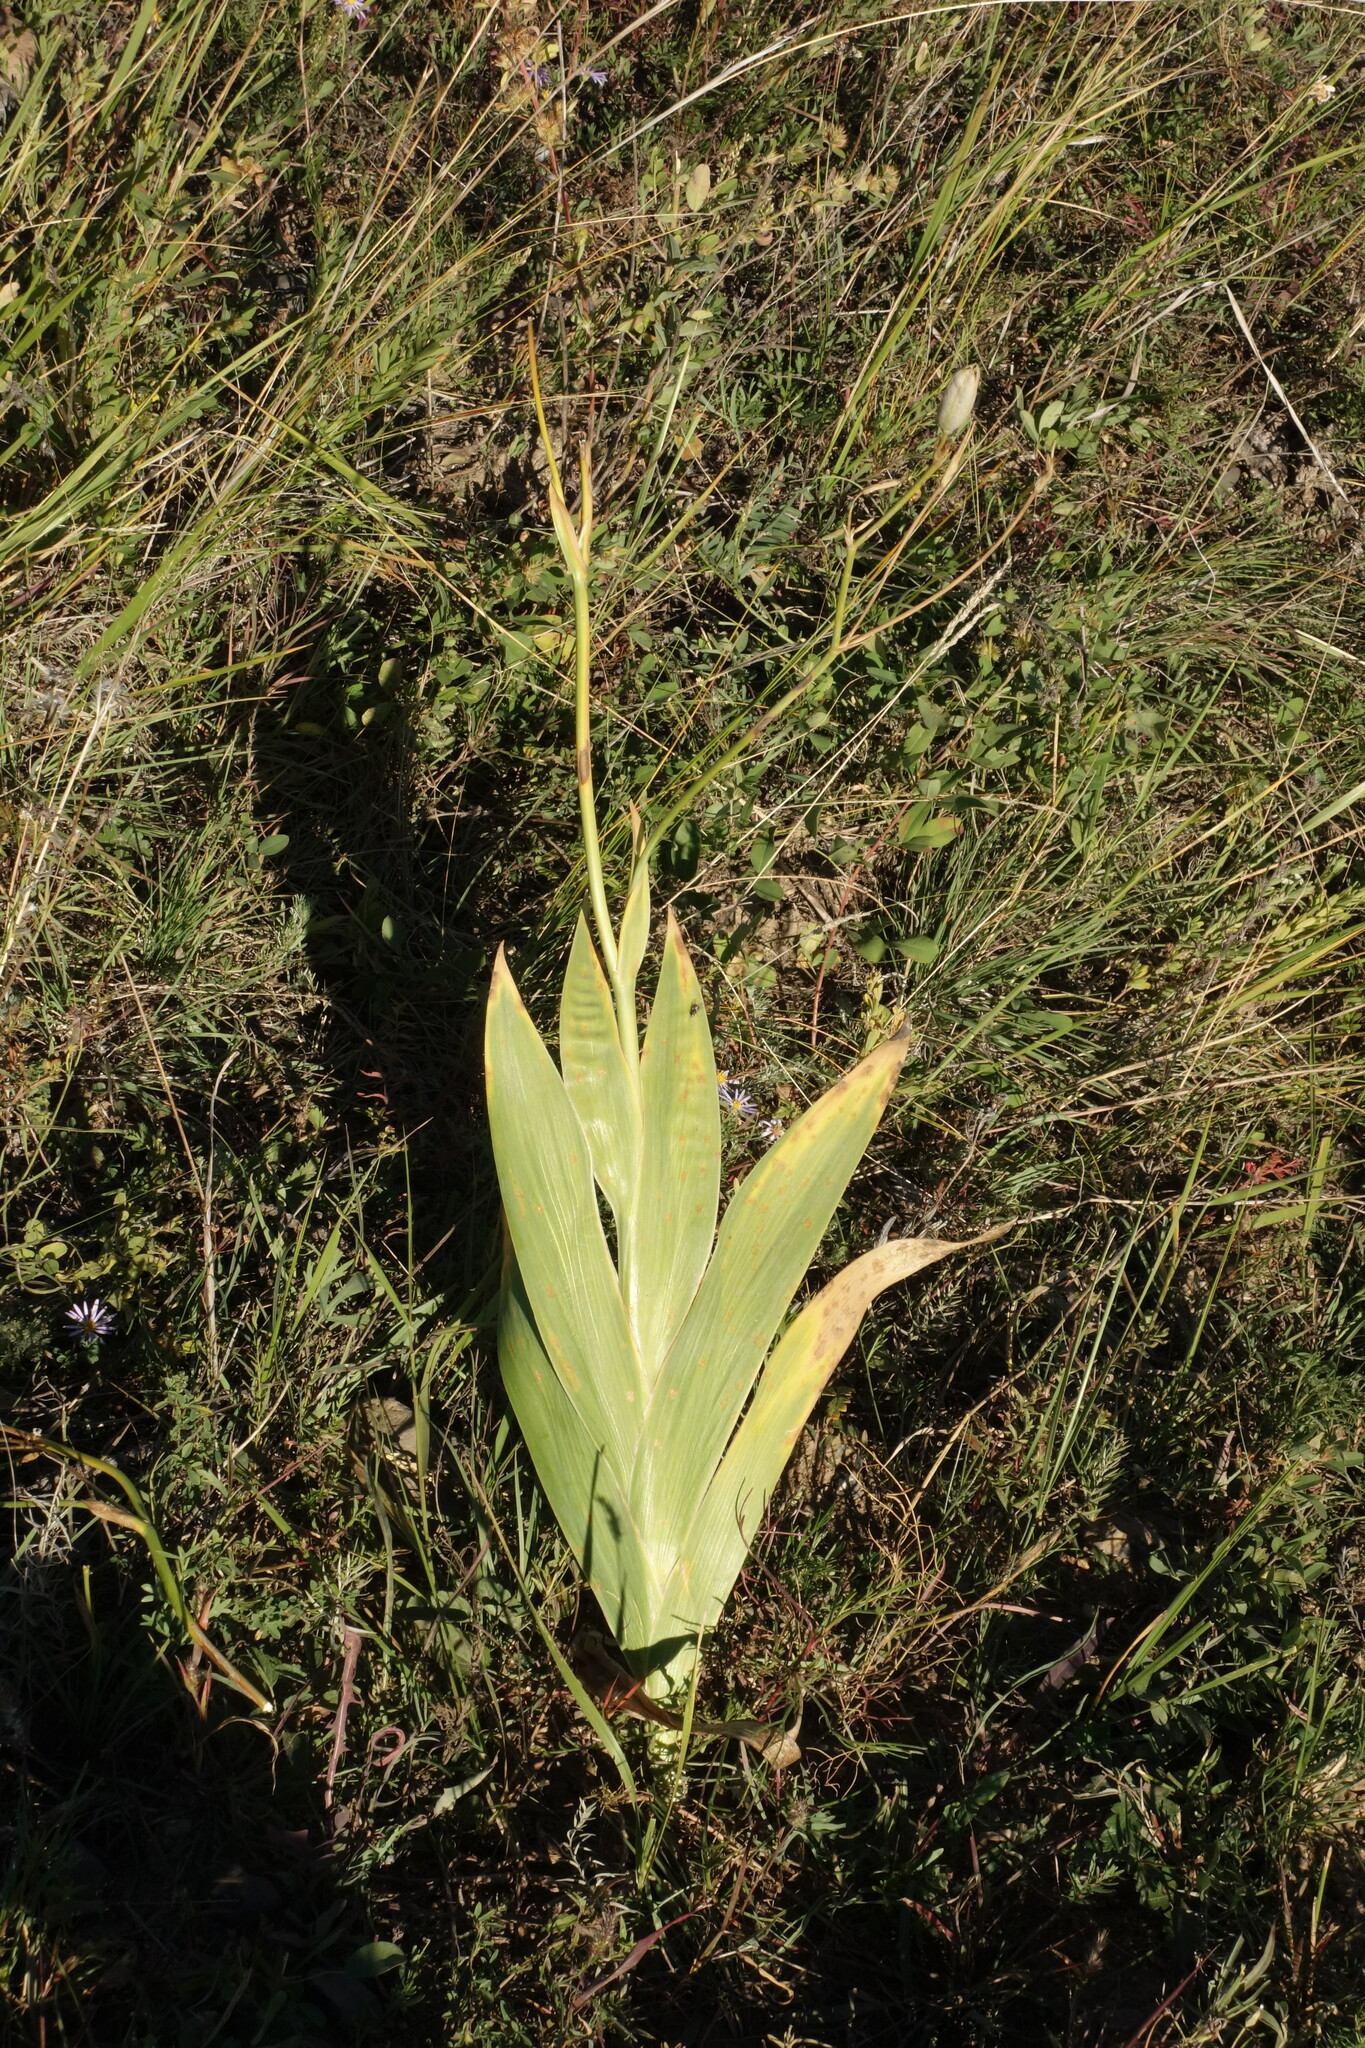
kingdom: Plantae
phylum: Tracheophyta
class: Liliopsida
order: Asparagales
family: Iridaceae
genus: Iris
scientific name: Iris dichotoma
